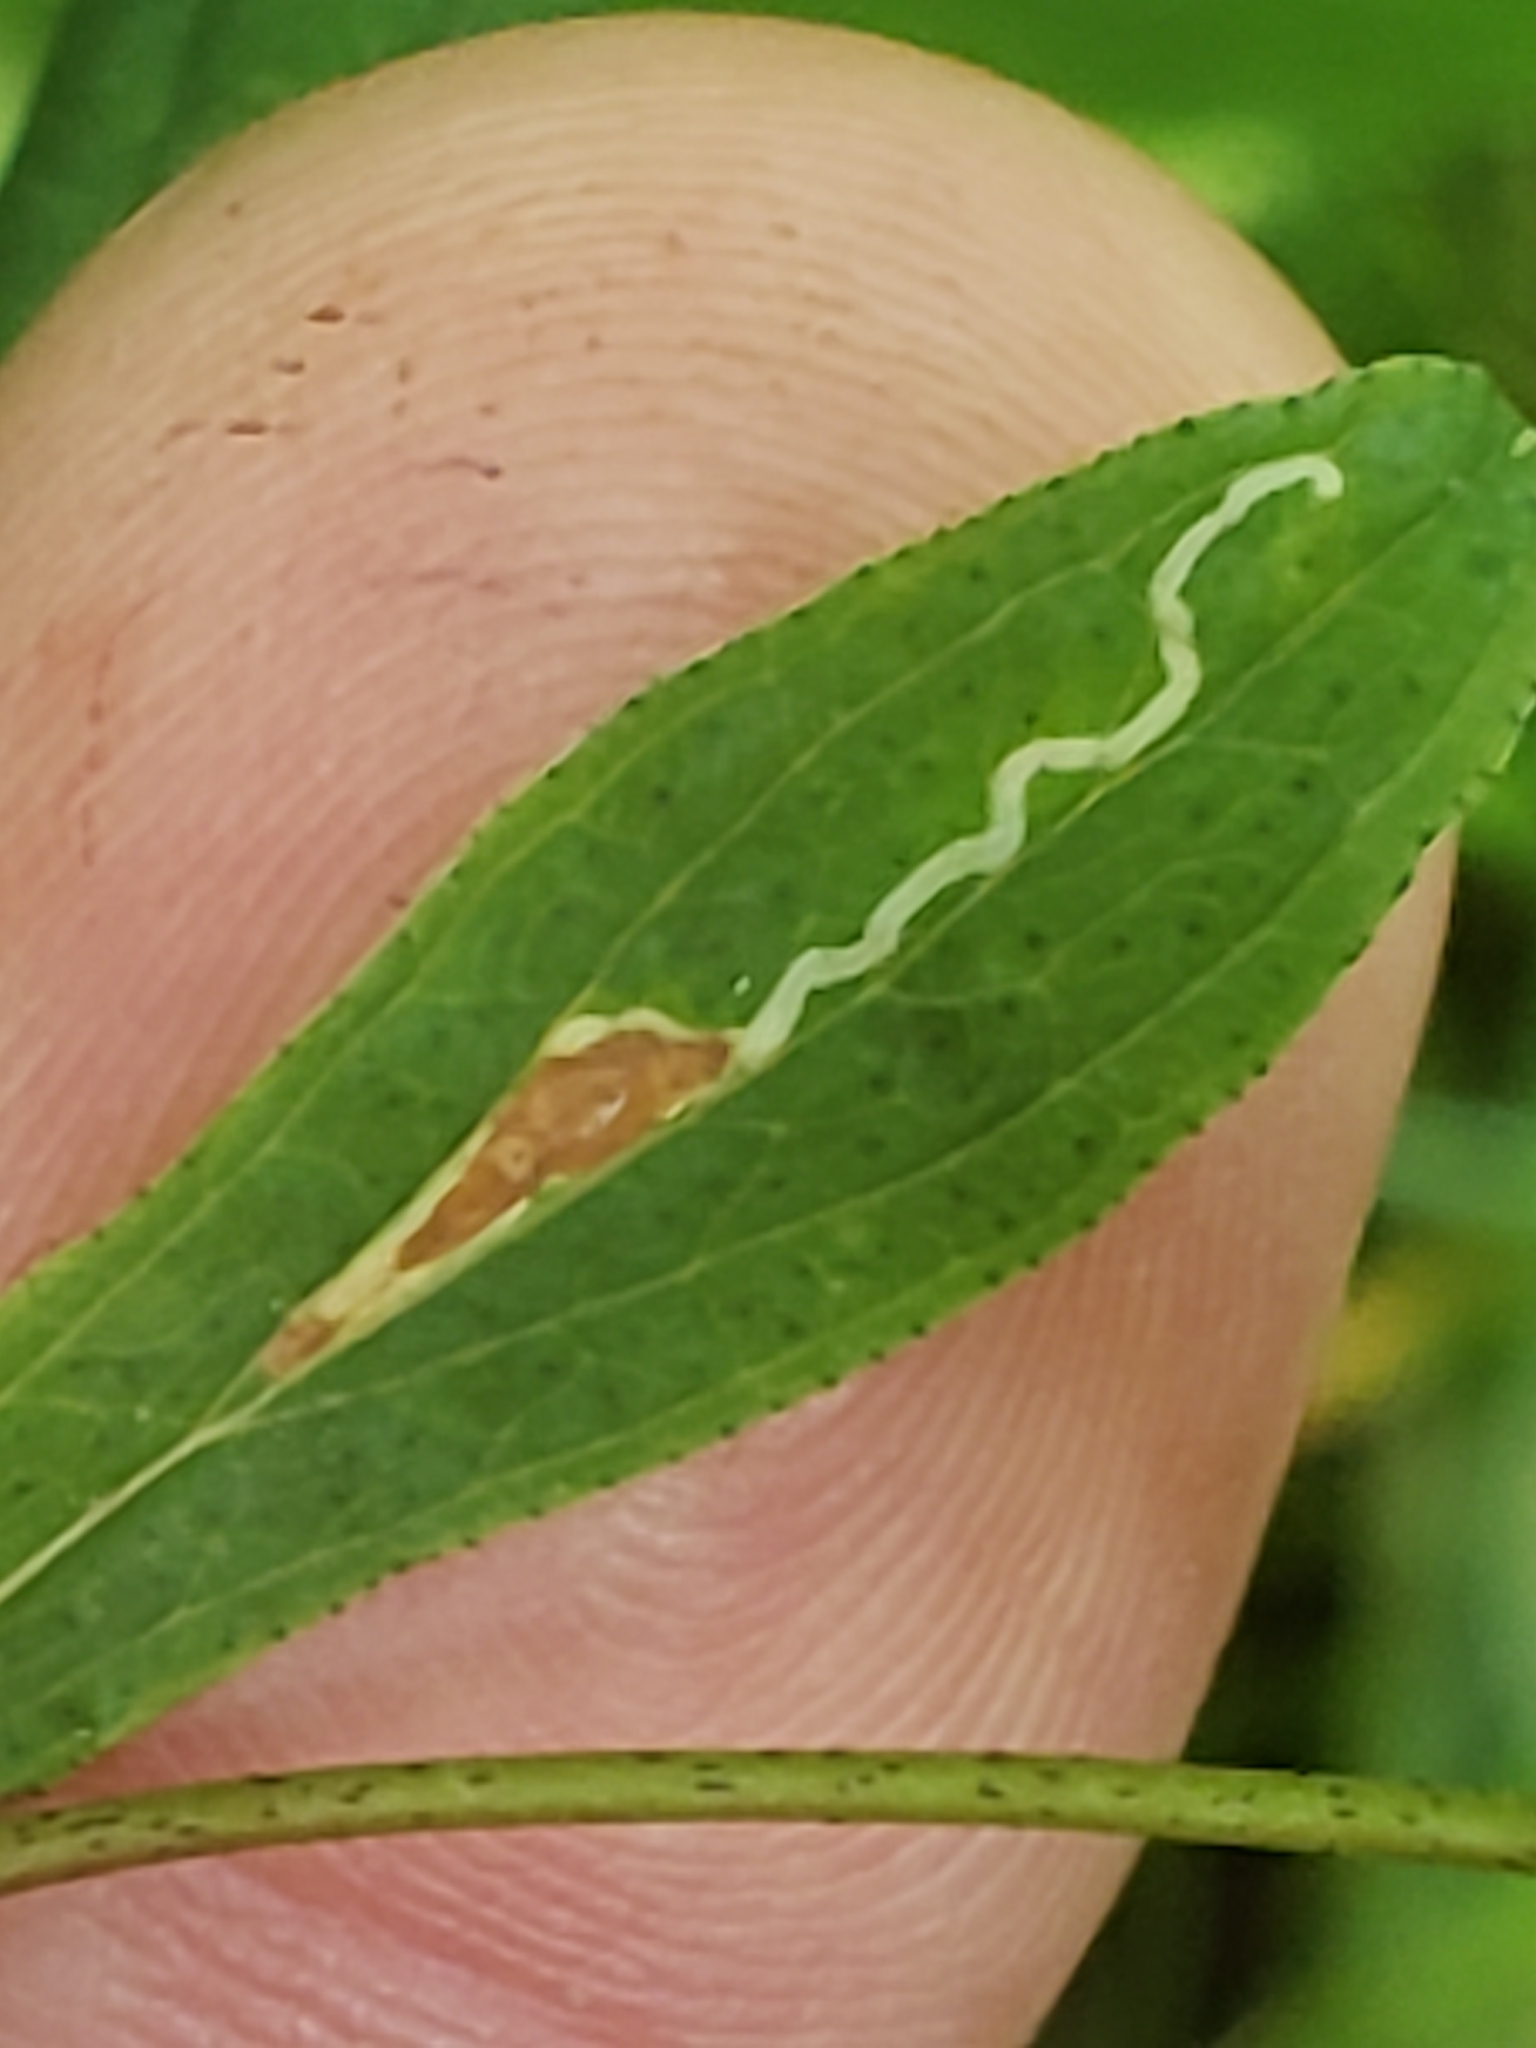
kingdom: Animalia
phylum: Arthropoda
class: Insecta
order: Lepidoptera
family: Gracillariidae
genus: Caloptilia
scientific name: Caloptilia hypericella
